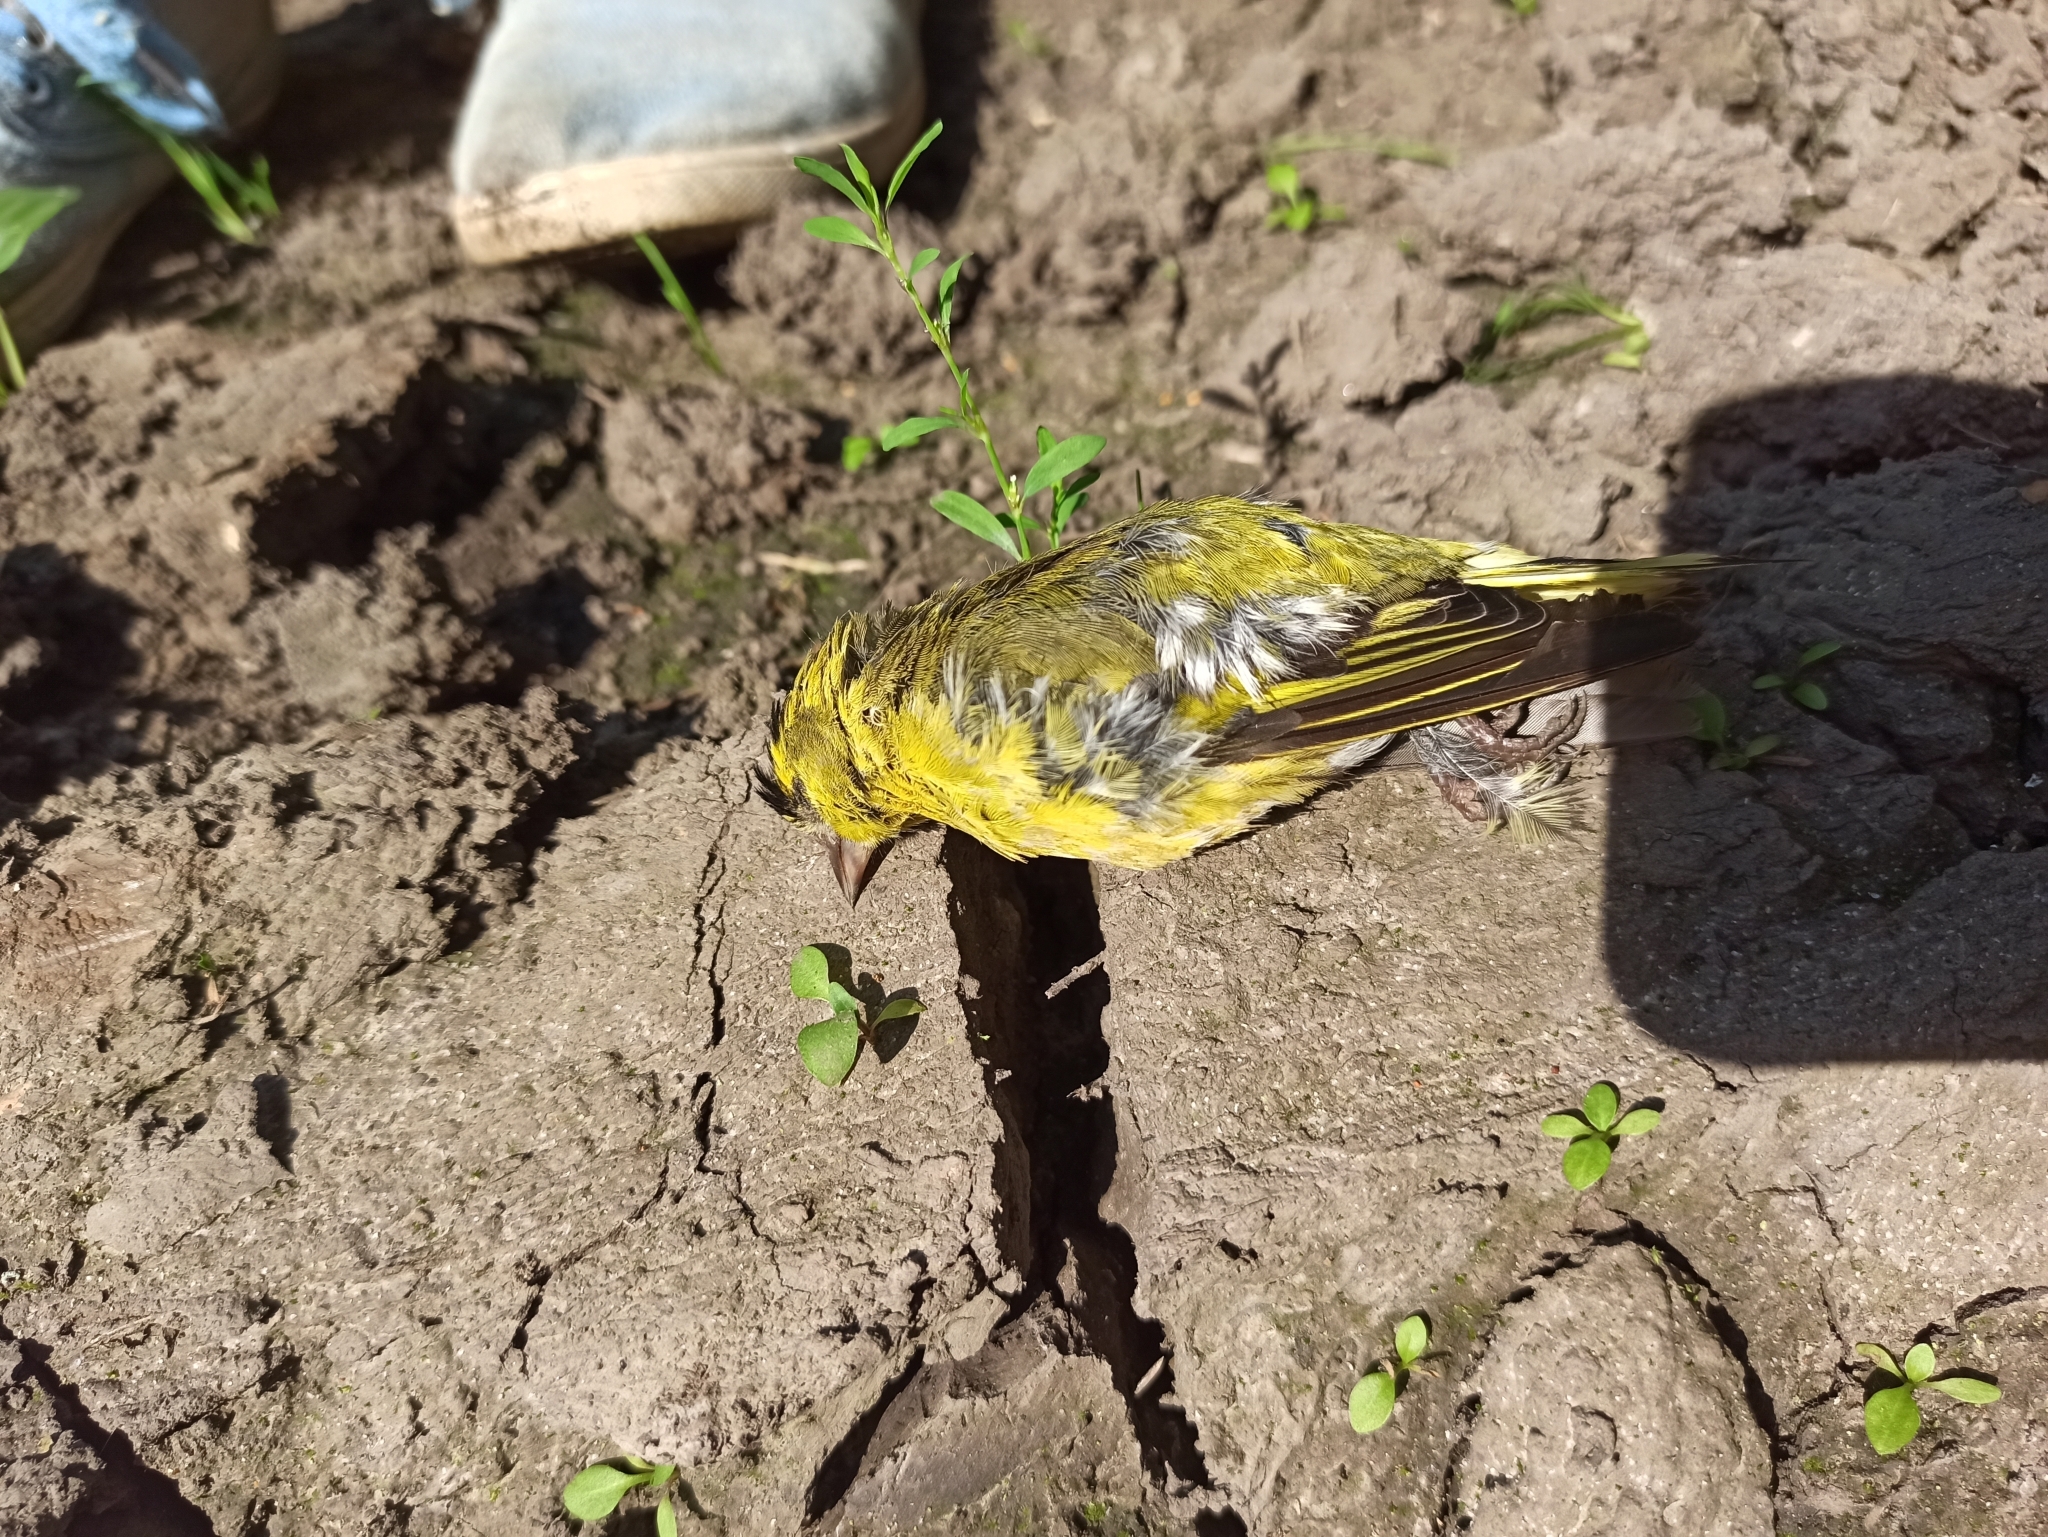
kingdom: Animalia
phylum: Chordata
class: Aves
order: Passeriformes
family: Fringillidae
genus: Spinus
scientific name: Spinus spinus
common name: Eurasian siskin
